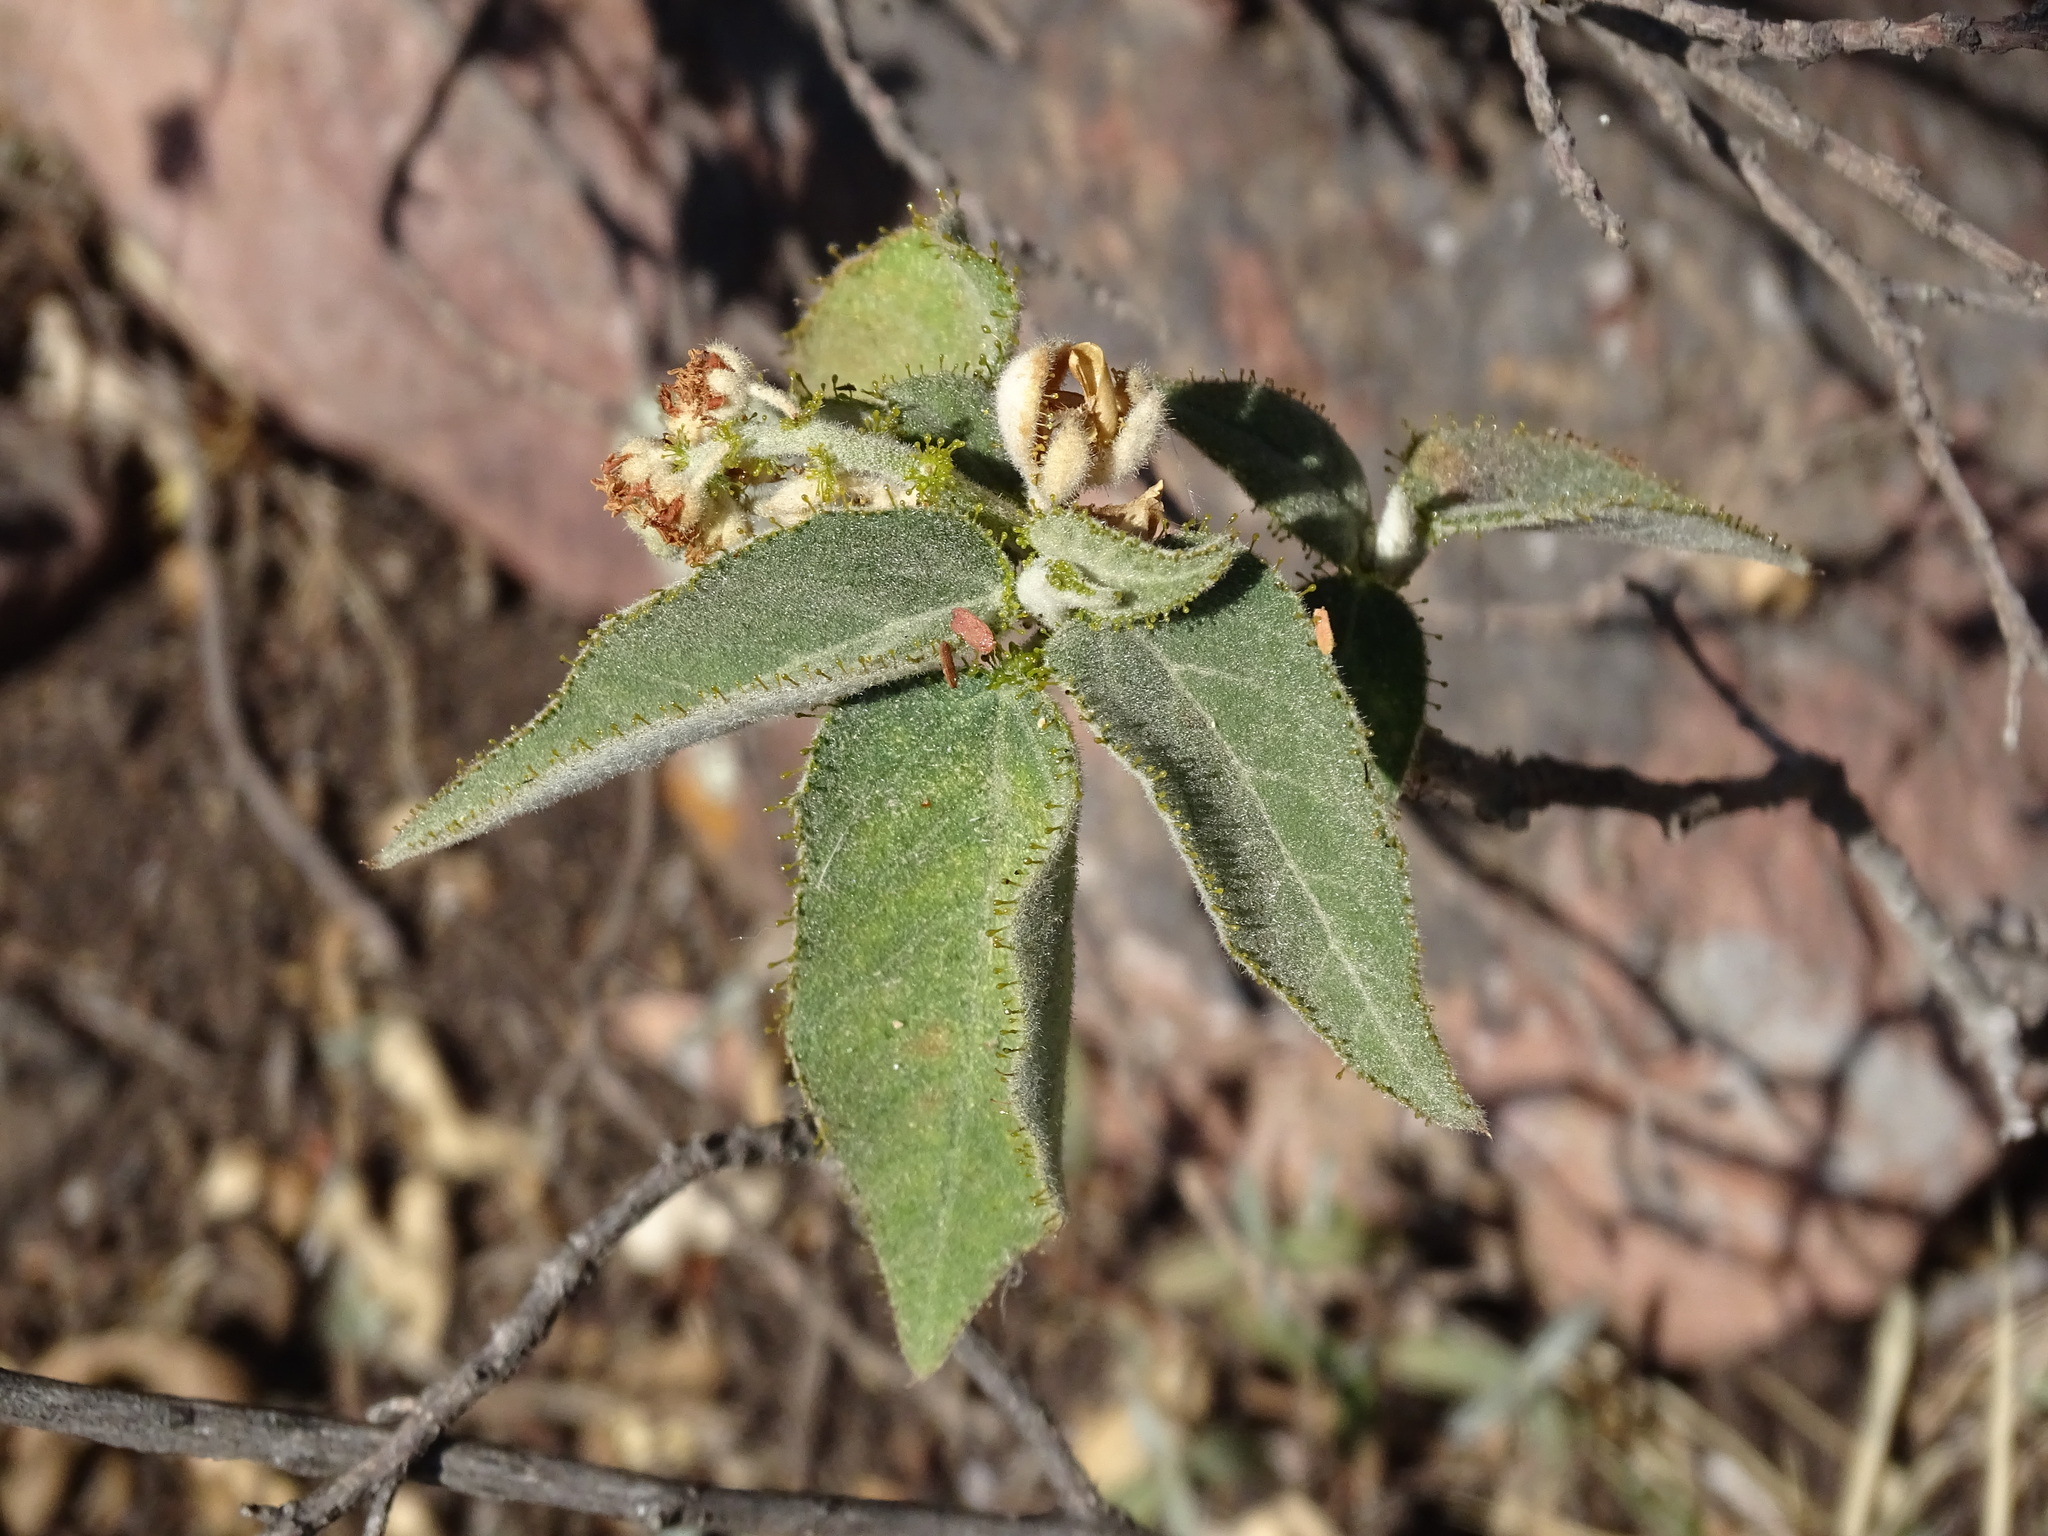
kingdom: Plantae
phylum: Tracheophyta
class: Magnoliopsida
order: Malpighiales
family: Euphorbiaceae
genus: Croton
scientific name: Croton ciliatoglandulifer
